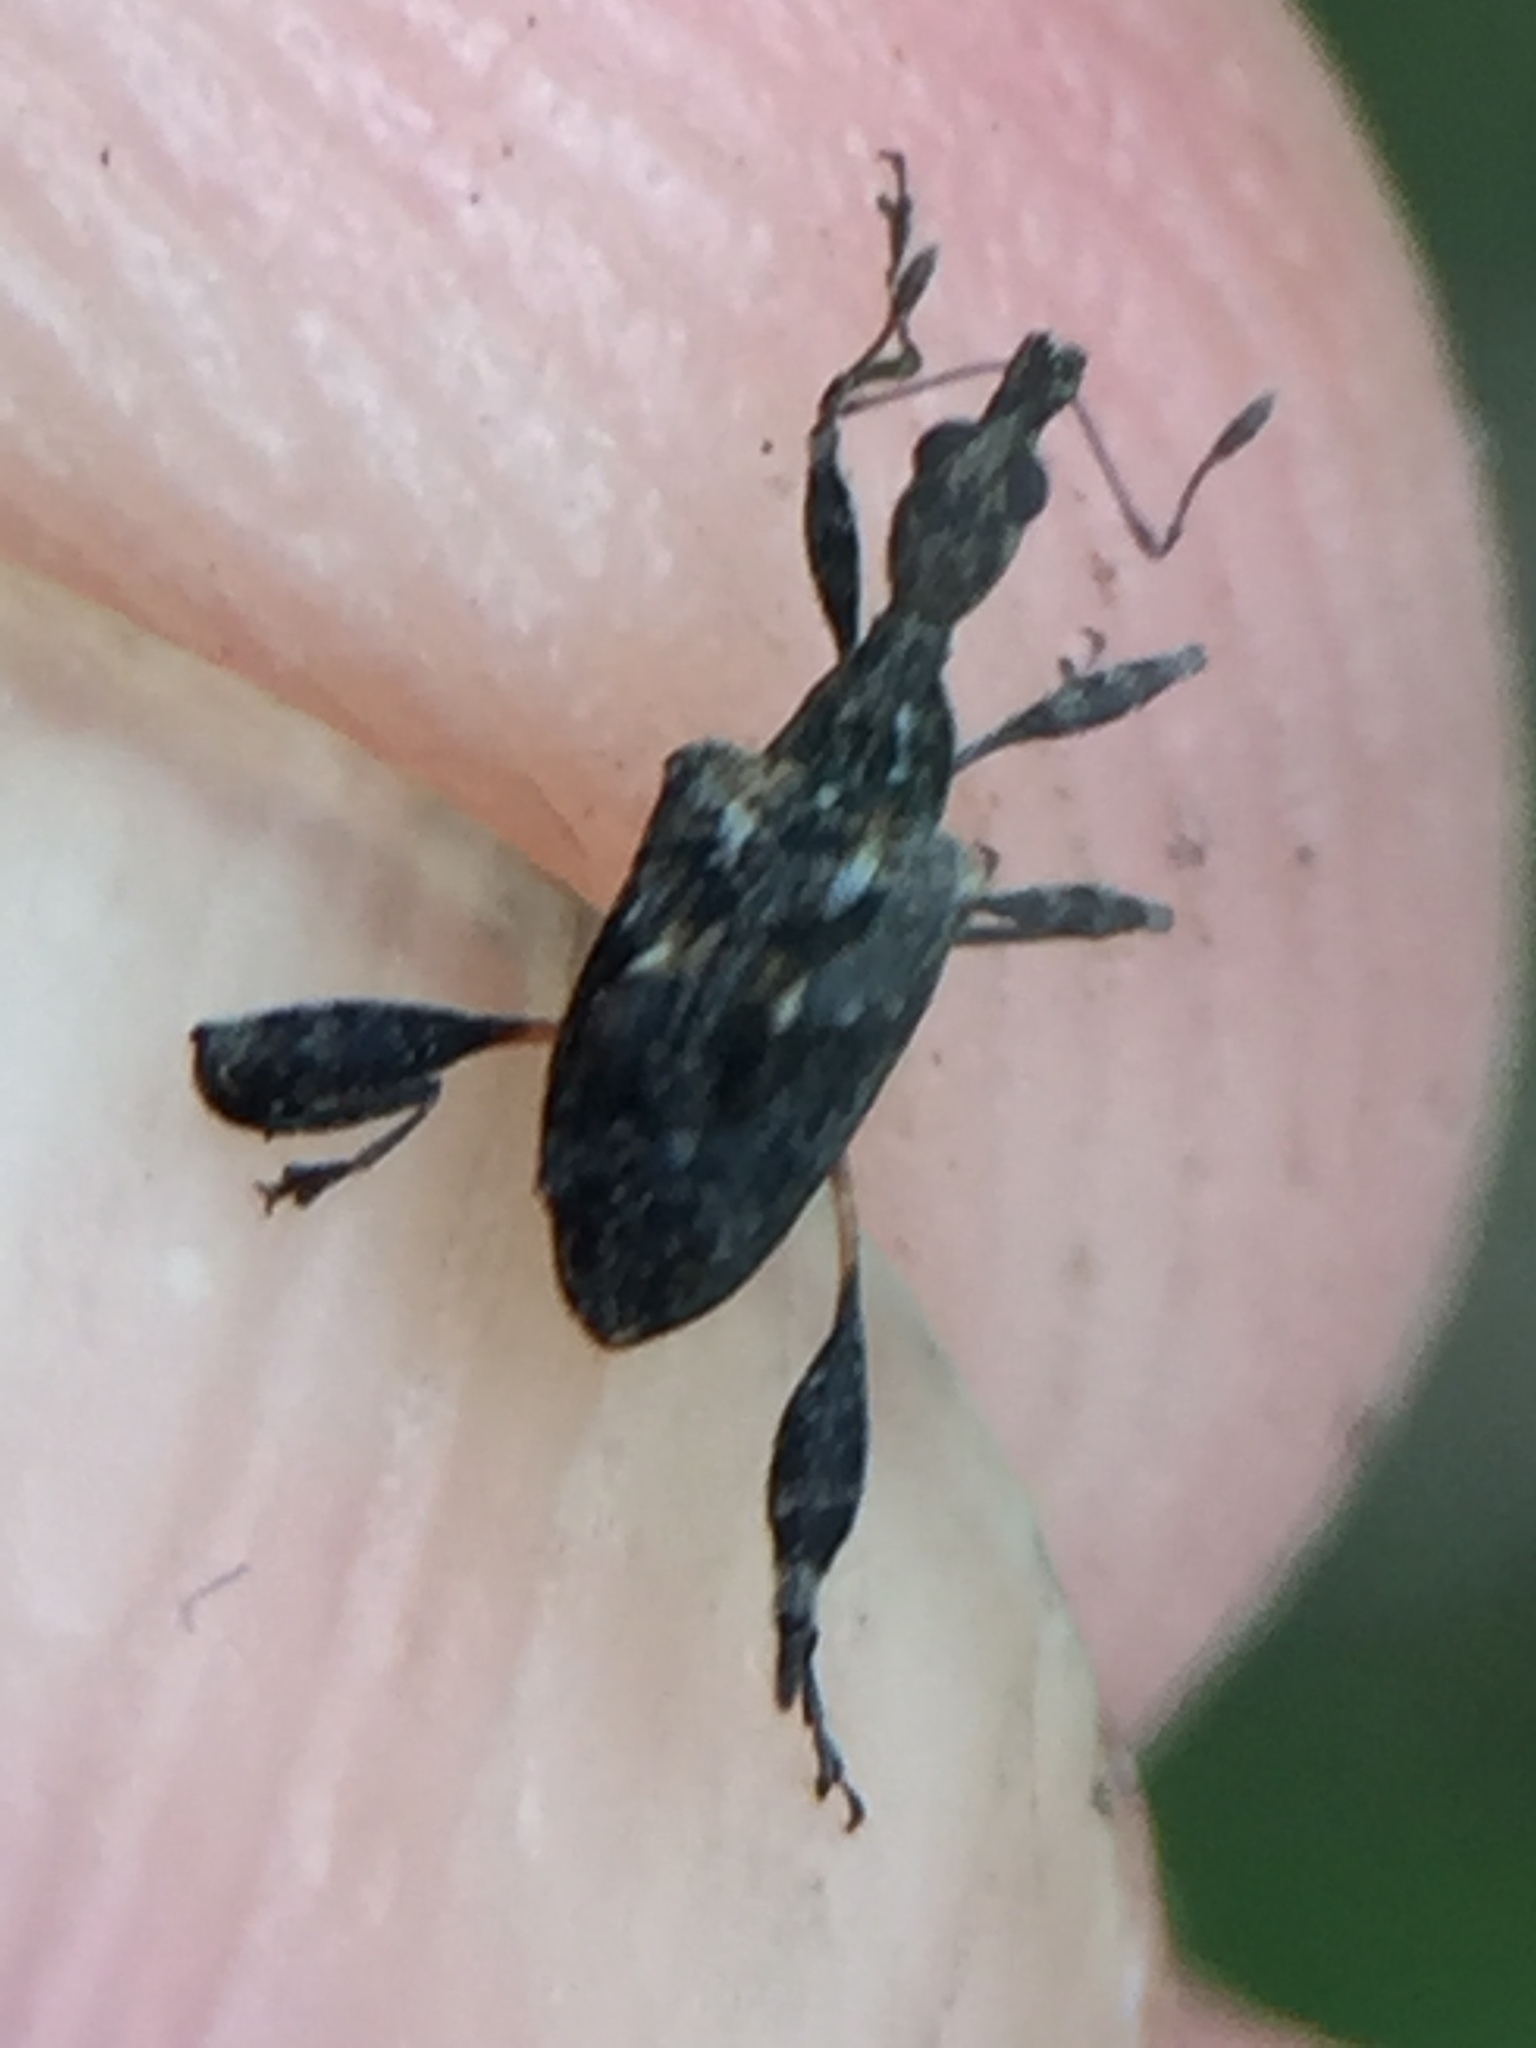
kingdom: Animalia
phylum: Arthropoda
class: Insecta
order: Coleoptera
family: Curculionidae
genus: Stephanorhynchus
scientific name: Stephanorhynchus lawsoni
